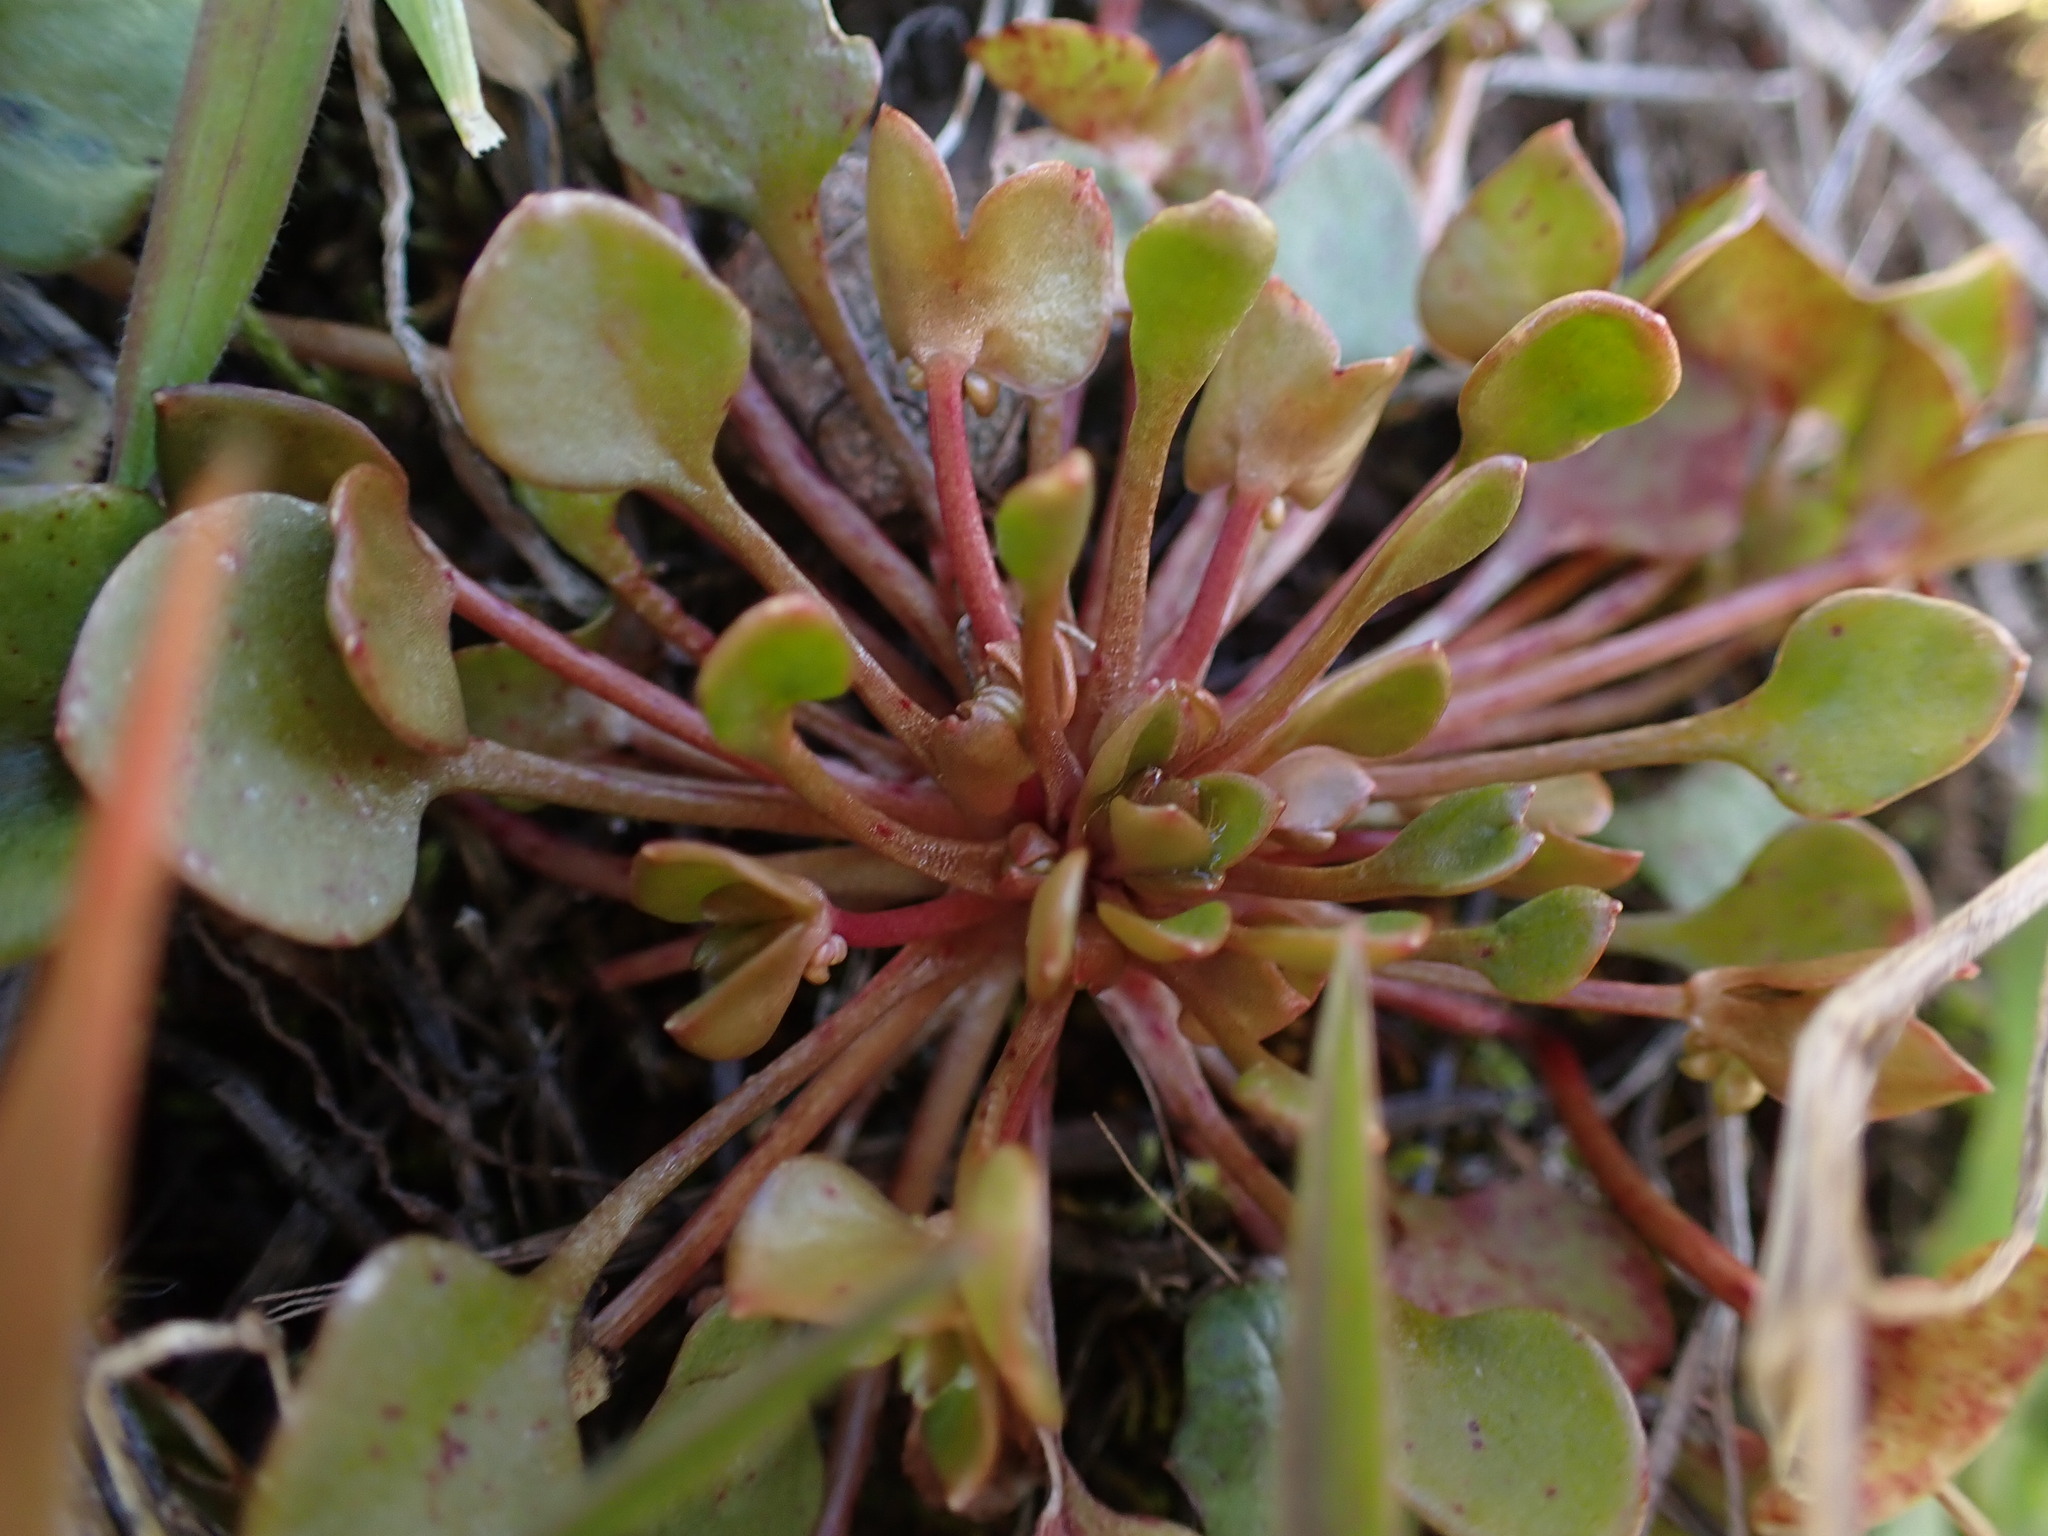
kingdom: Plantae
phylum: Tracheophyta
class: Magnoliopsida
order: Caryophyllales
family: Montiaceae
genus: Claytonia
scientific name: Claytonia rubra
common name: Erubescent miner's-lettuce
